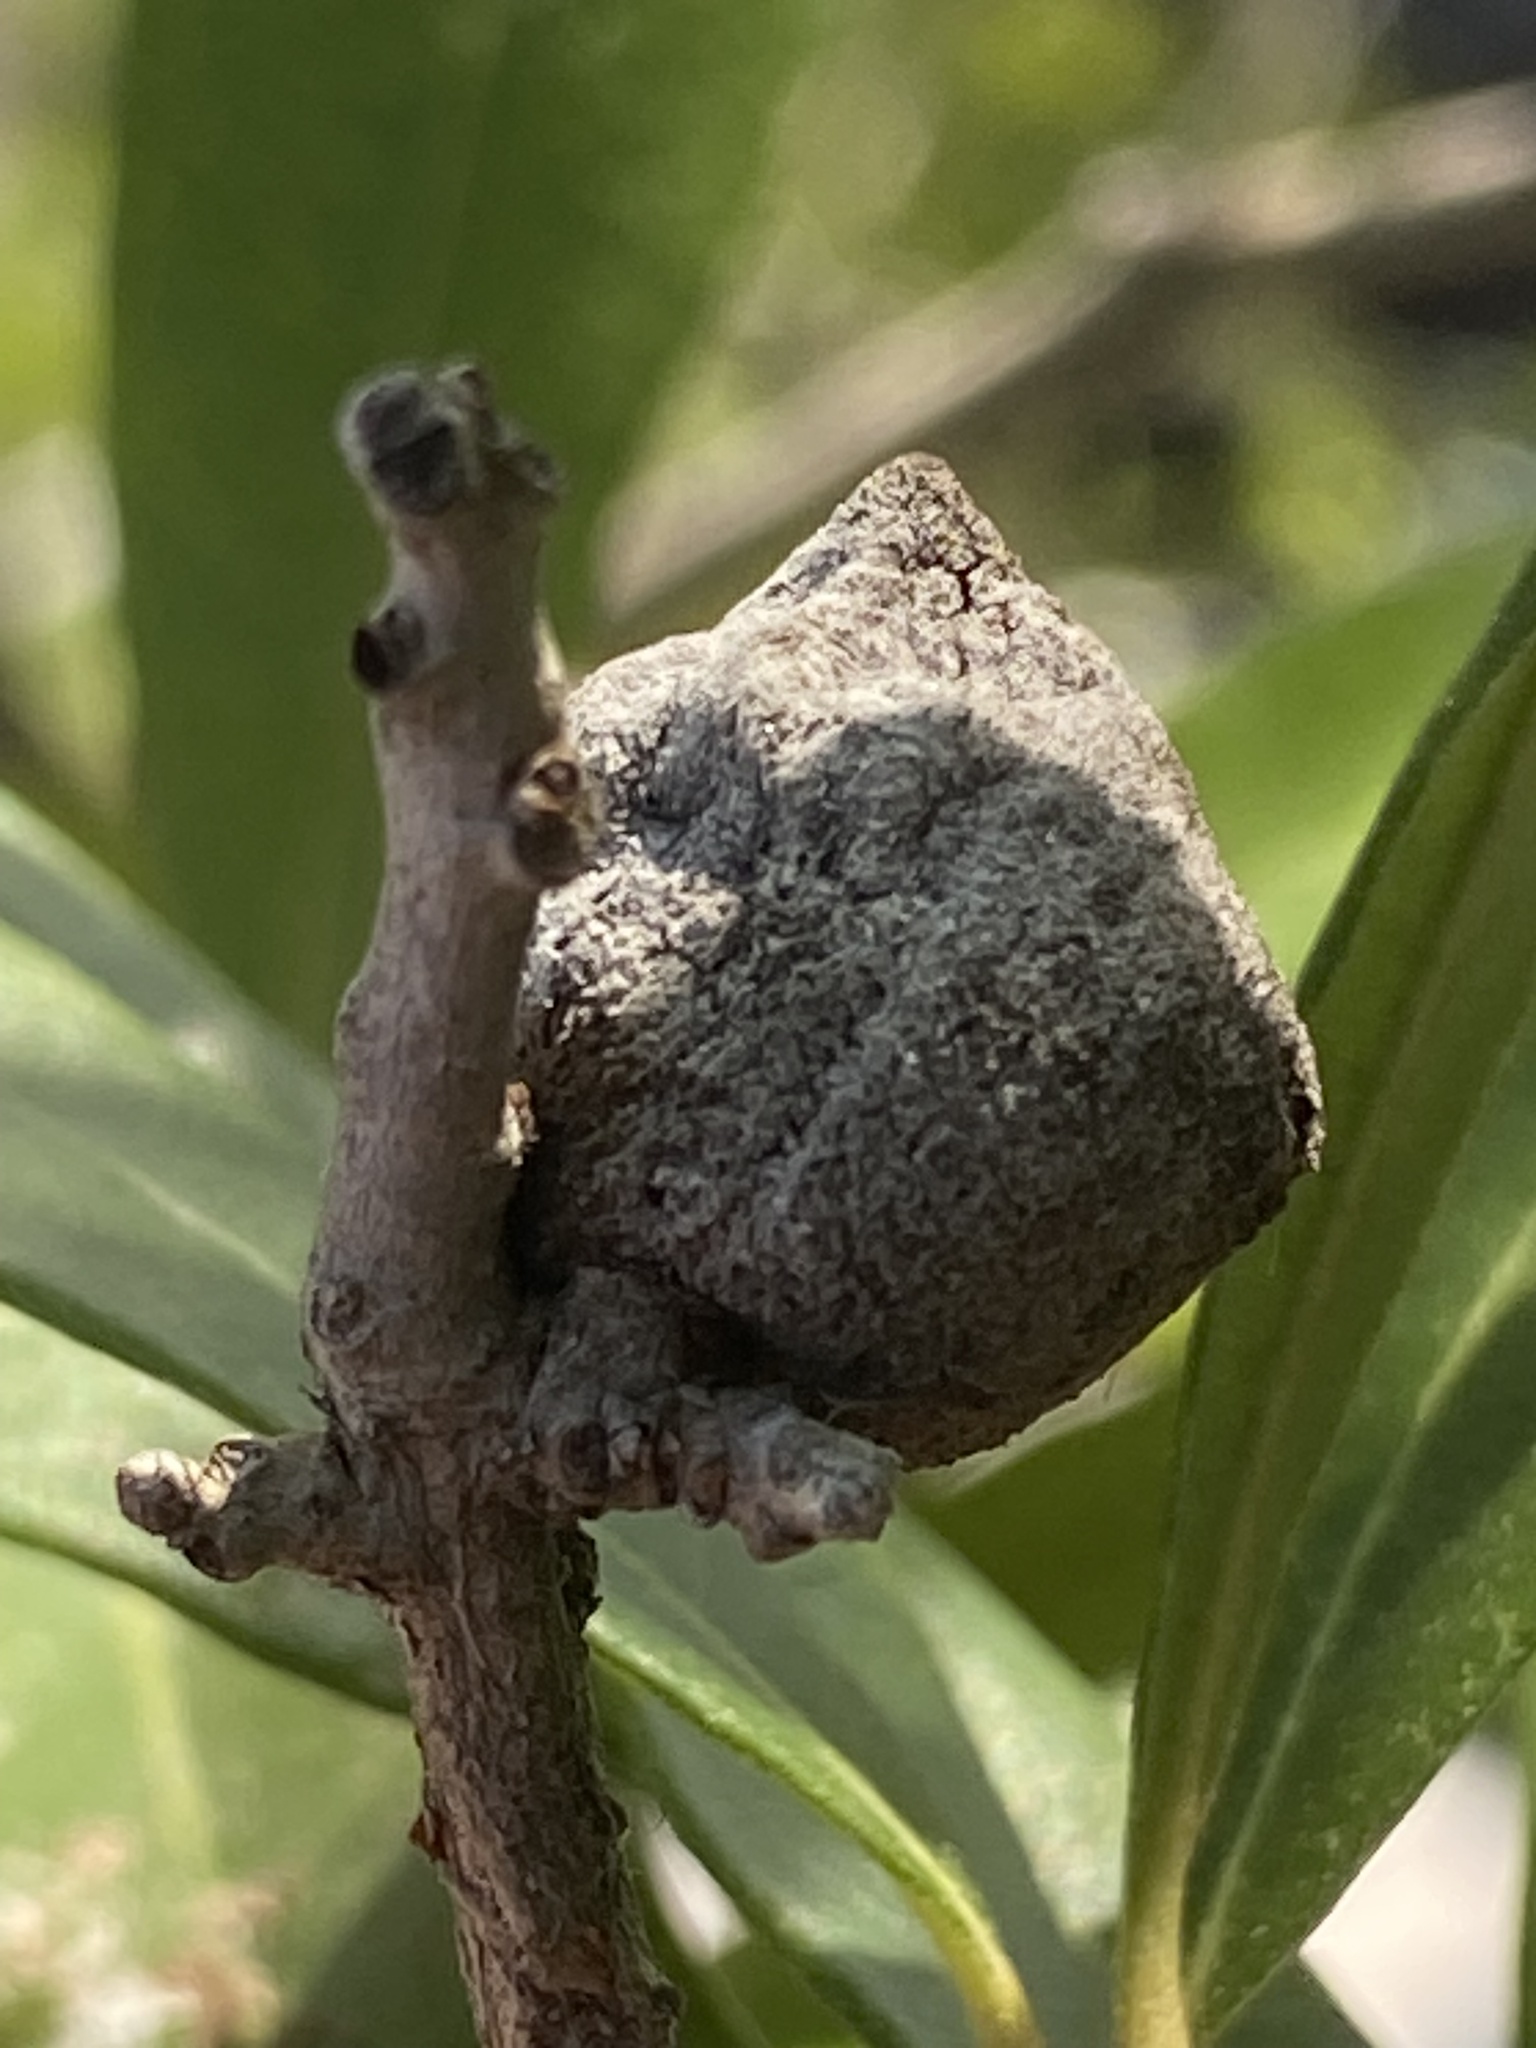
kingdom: Animalia
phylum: Arthropoda
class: Insecta
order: Hymenoptera
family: Cynipidae
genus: Disholcaspis
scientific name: Disholcaspis
